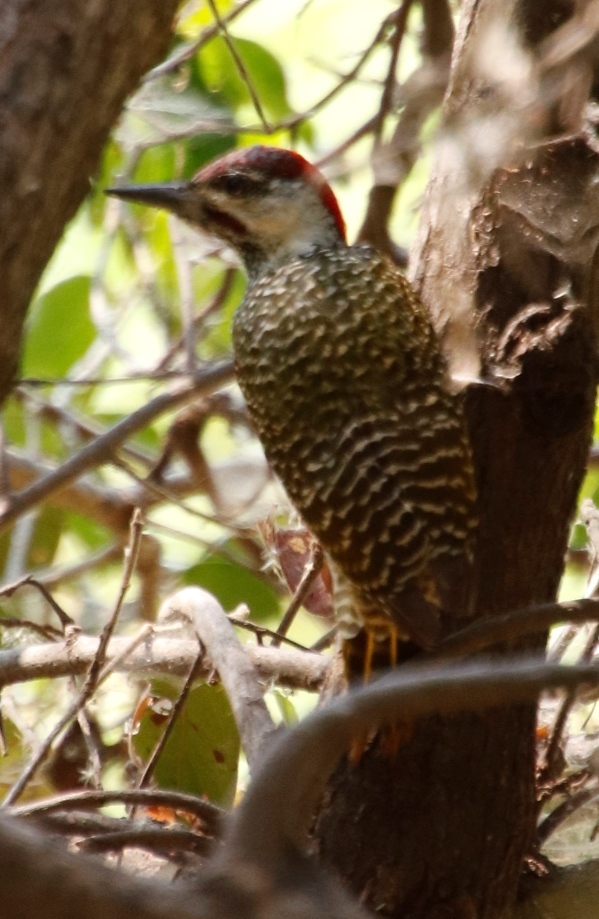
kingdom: Animalia
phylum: Chordata
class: Aves
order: Piciformes
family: Picidae
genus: Campethera
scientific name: Campethera abingoni
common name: Golden-tailed woodpecker
